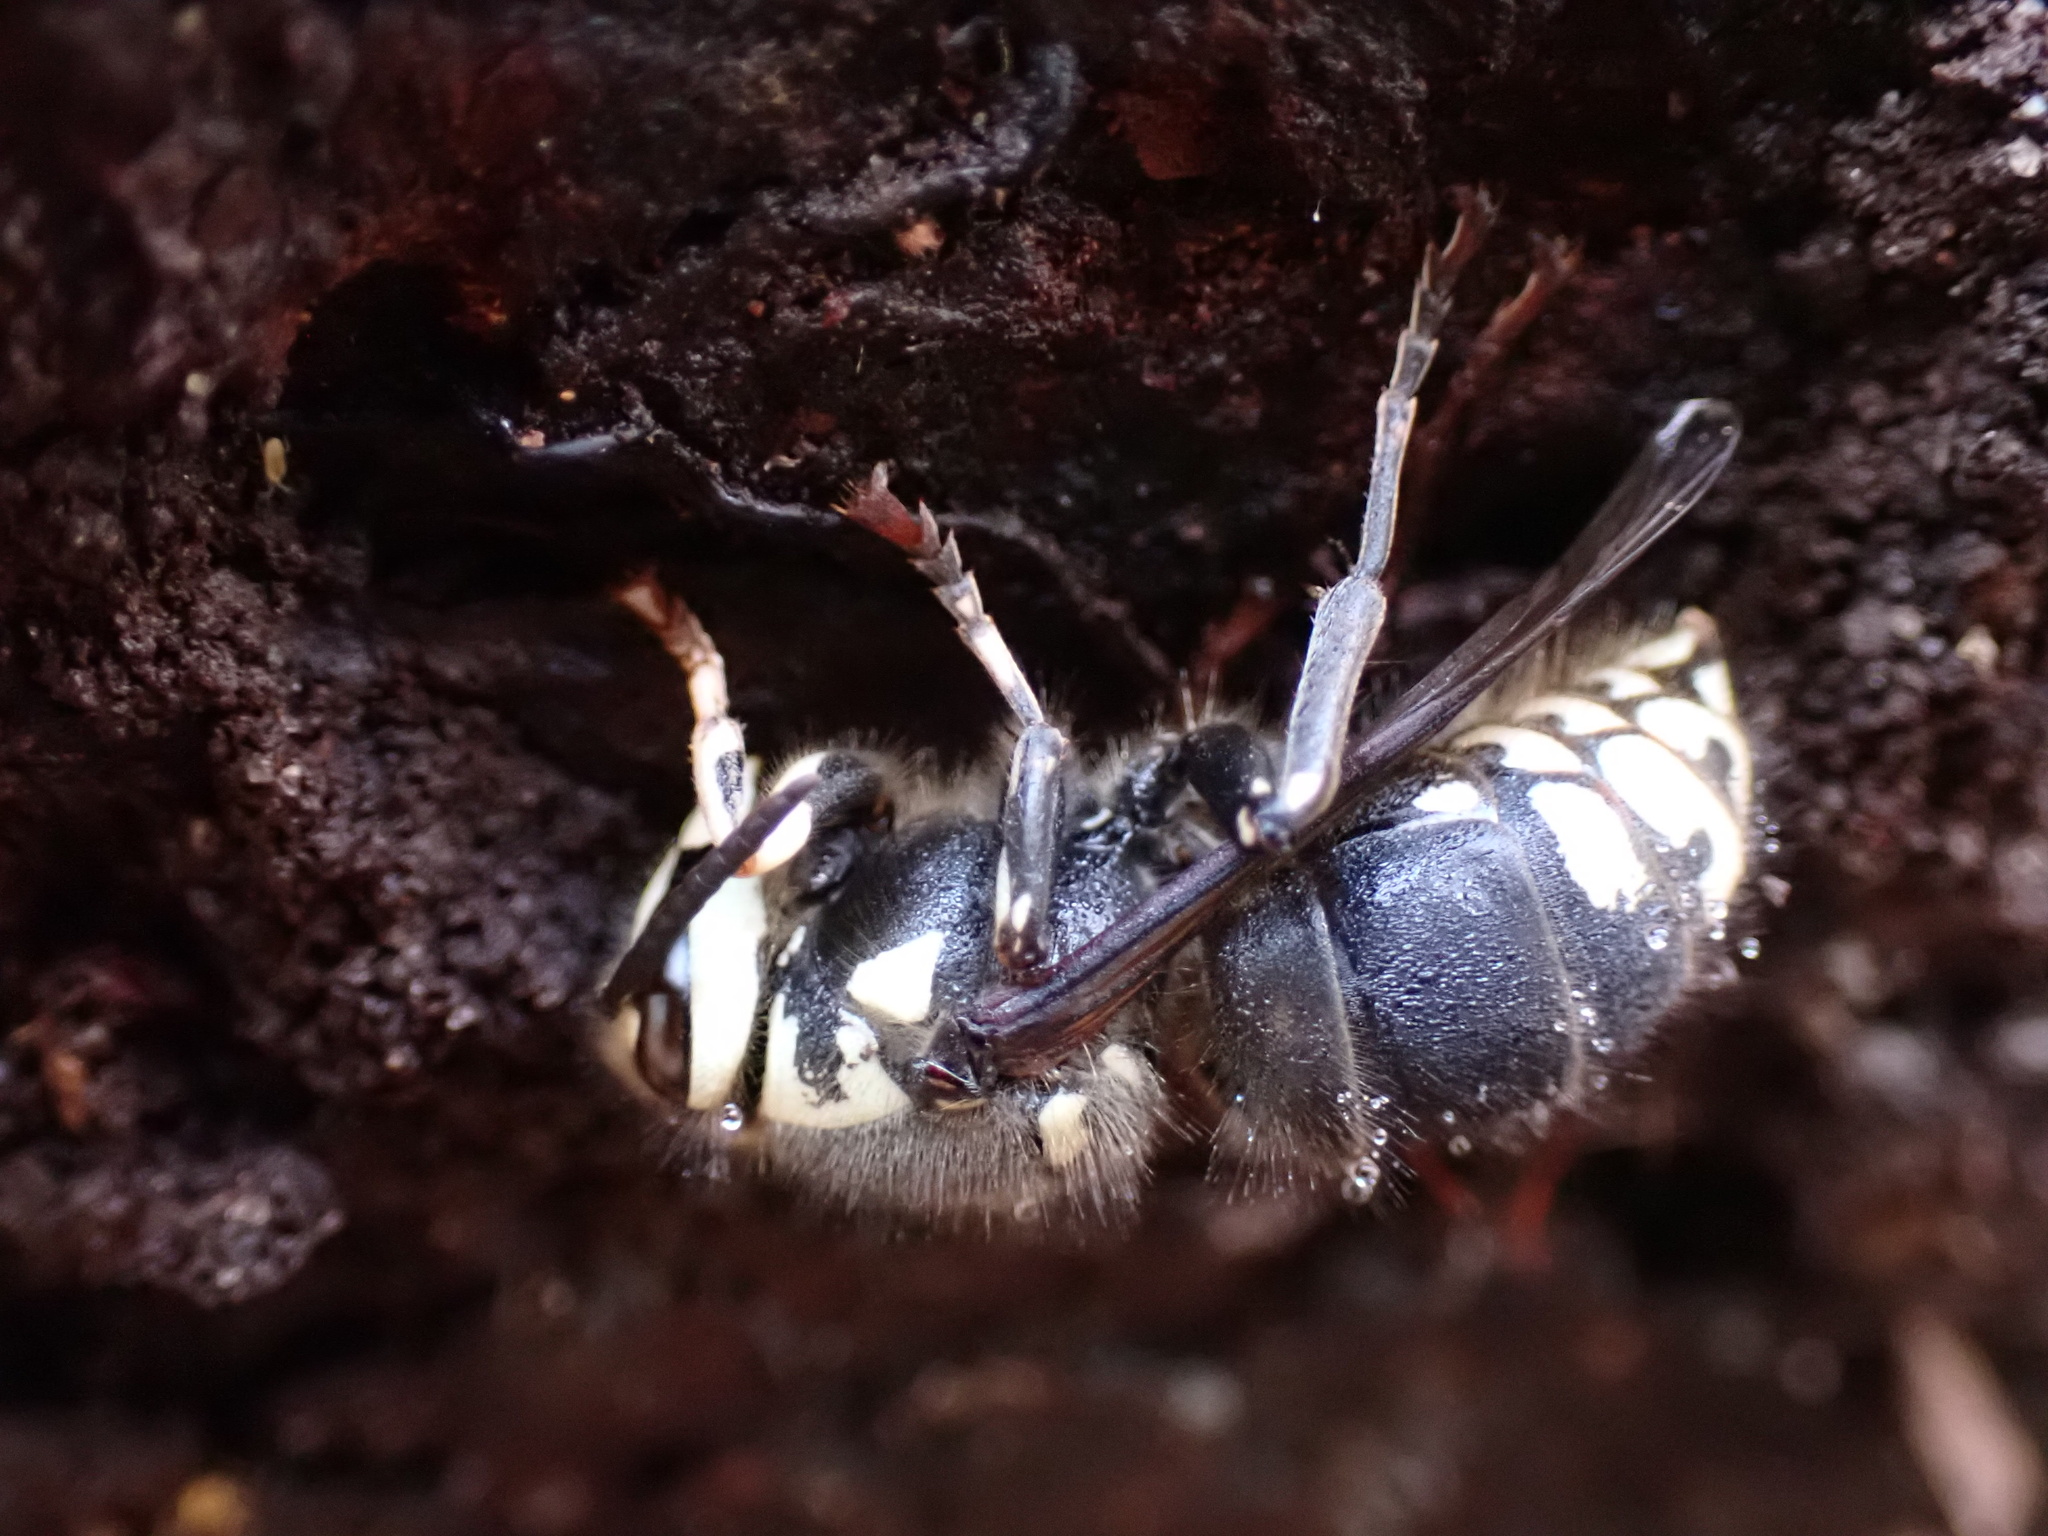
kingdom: Animalia
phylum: Arthropoda
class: Insecta
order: Hymenoptera
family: Vespidae
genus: Dolichovespula
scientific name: Dolichovespula maculata
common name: Bald-faced hornet
